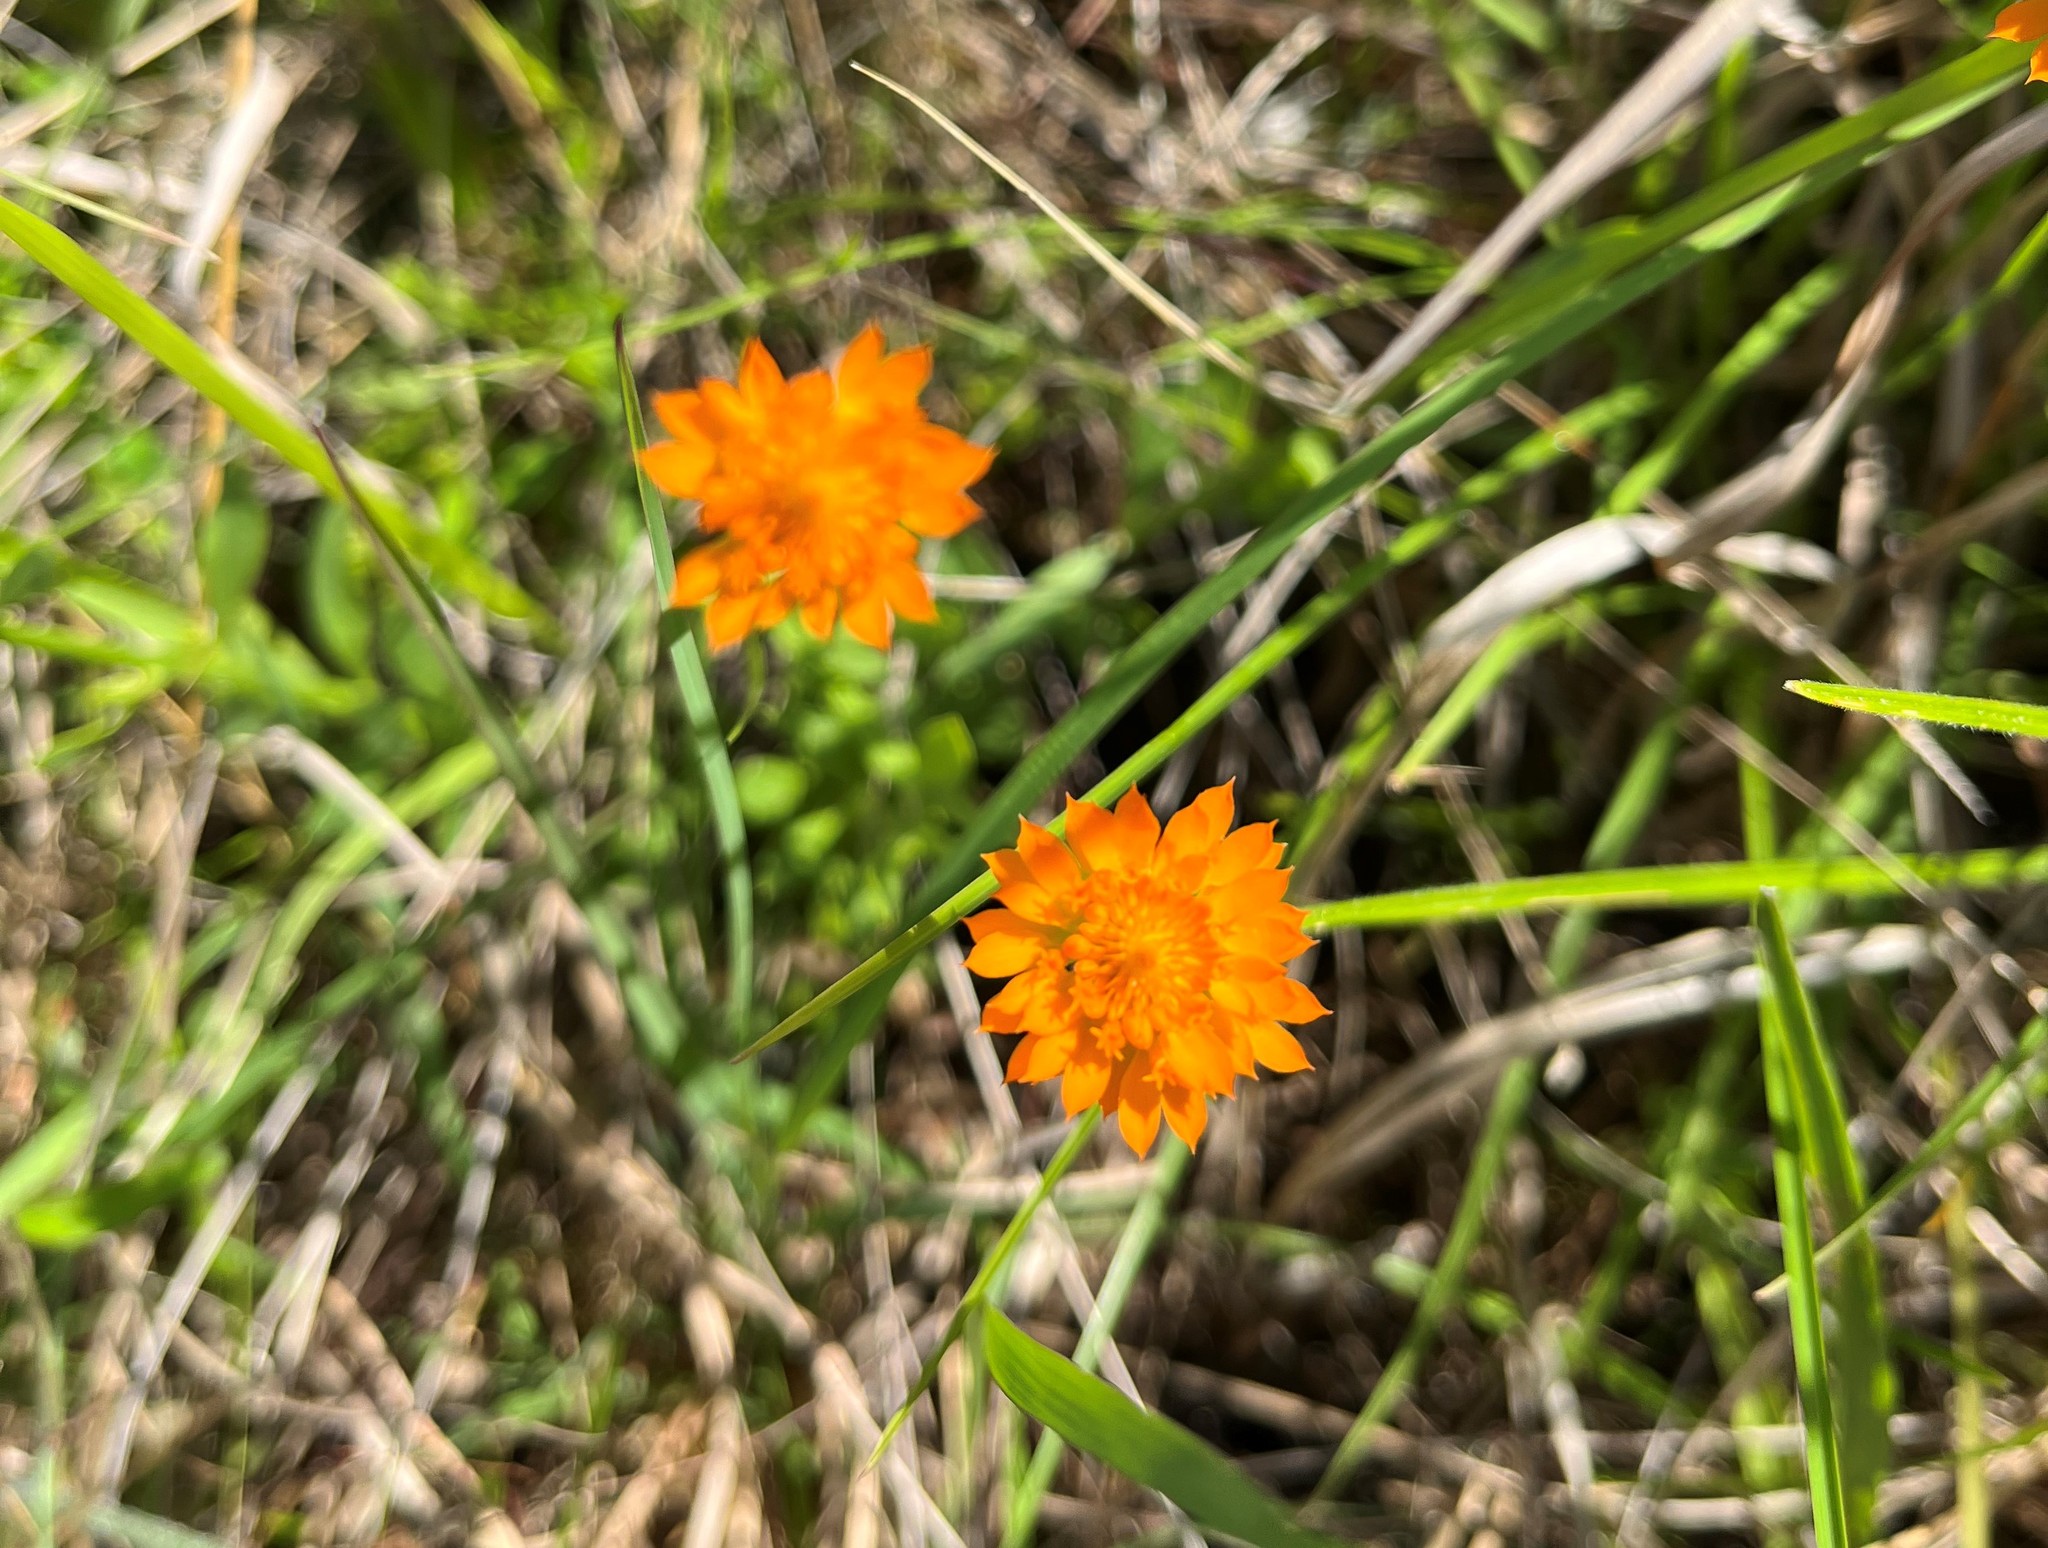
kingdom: Plantae
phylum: Tracheophyta
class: Magnoliopsida
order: Fabales
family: Polygalaceae
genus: Polygala
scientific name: Polygala lutea
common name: Orange milkwort
